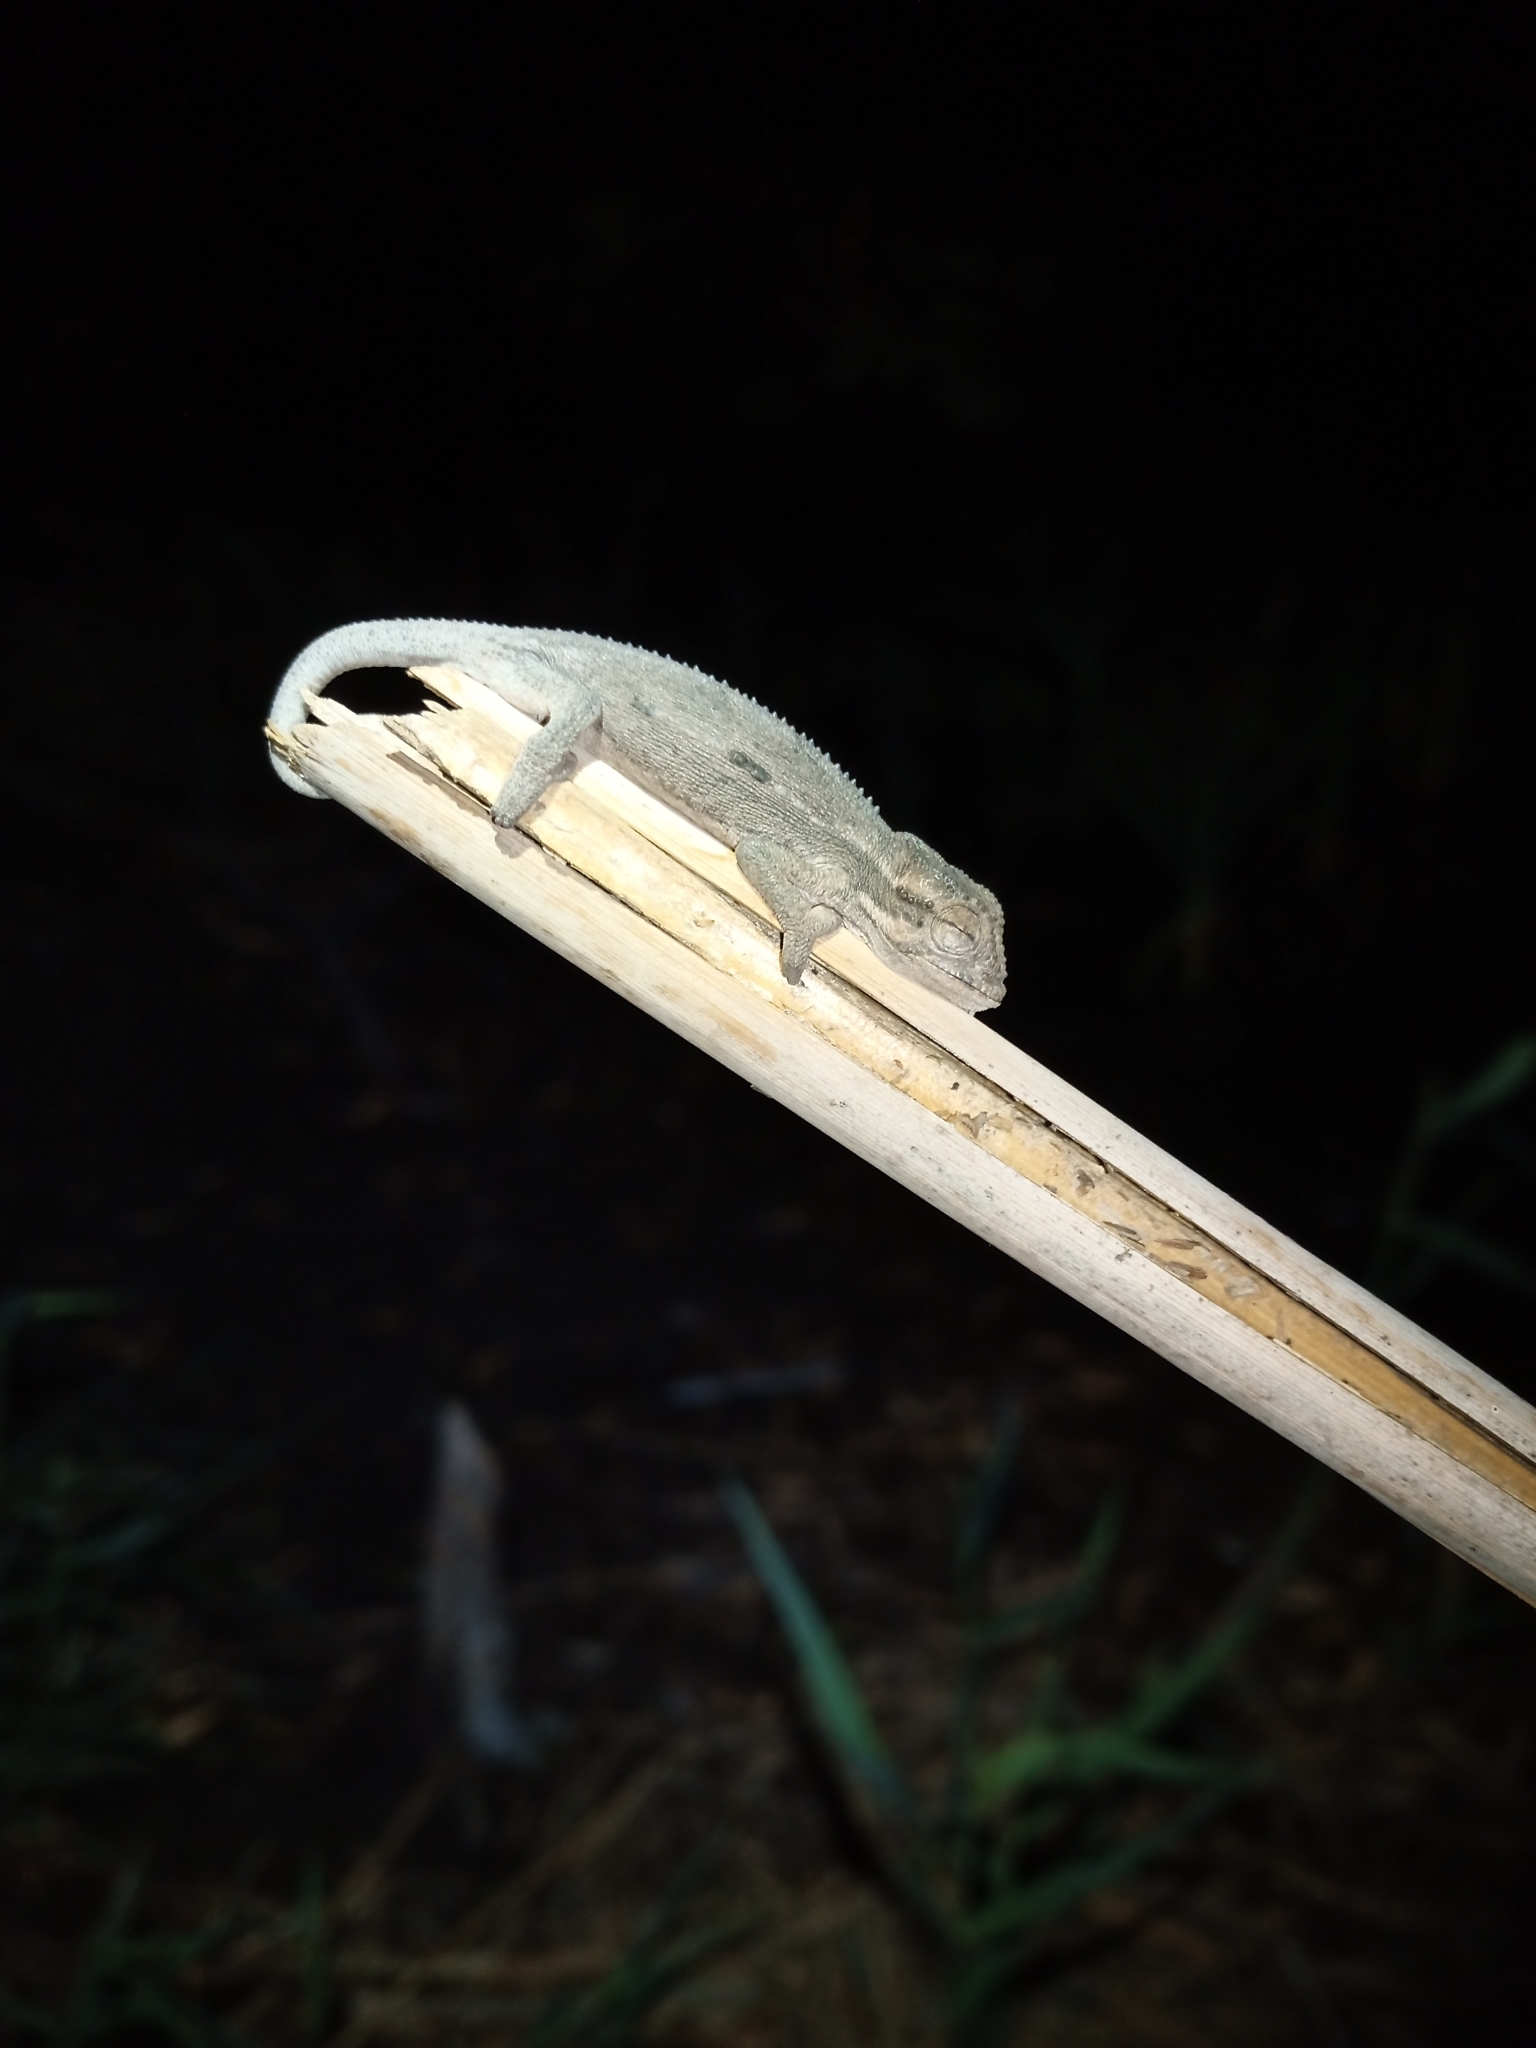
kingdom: Animalia
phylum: Chordata
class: Squamata
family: Chamaeleonidae
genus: Bradypodion
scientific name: Bradypodion pumilum
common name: Cape dwarf chameleon
